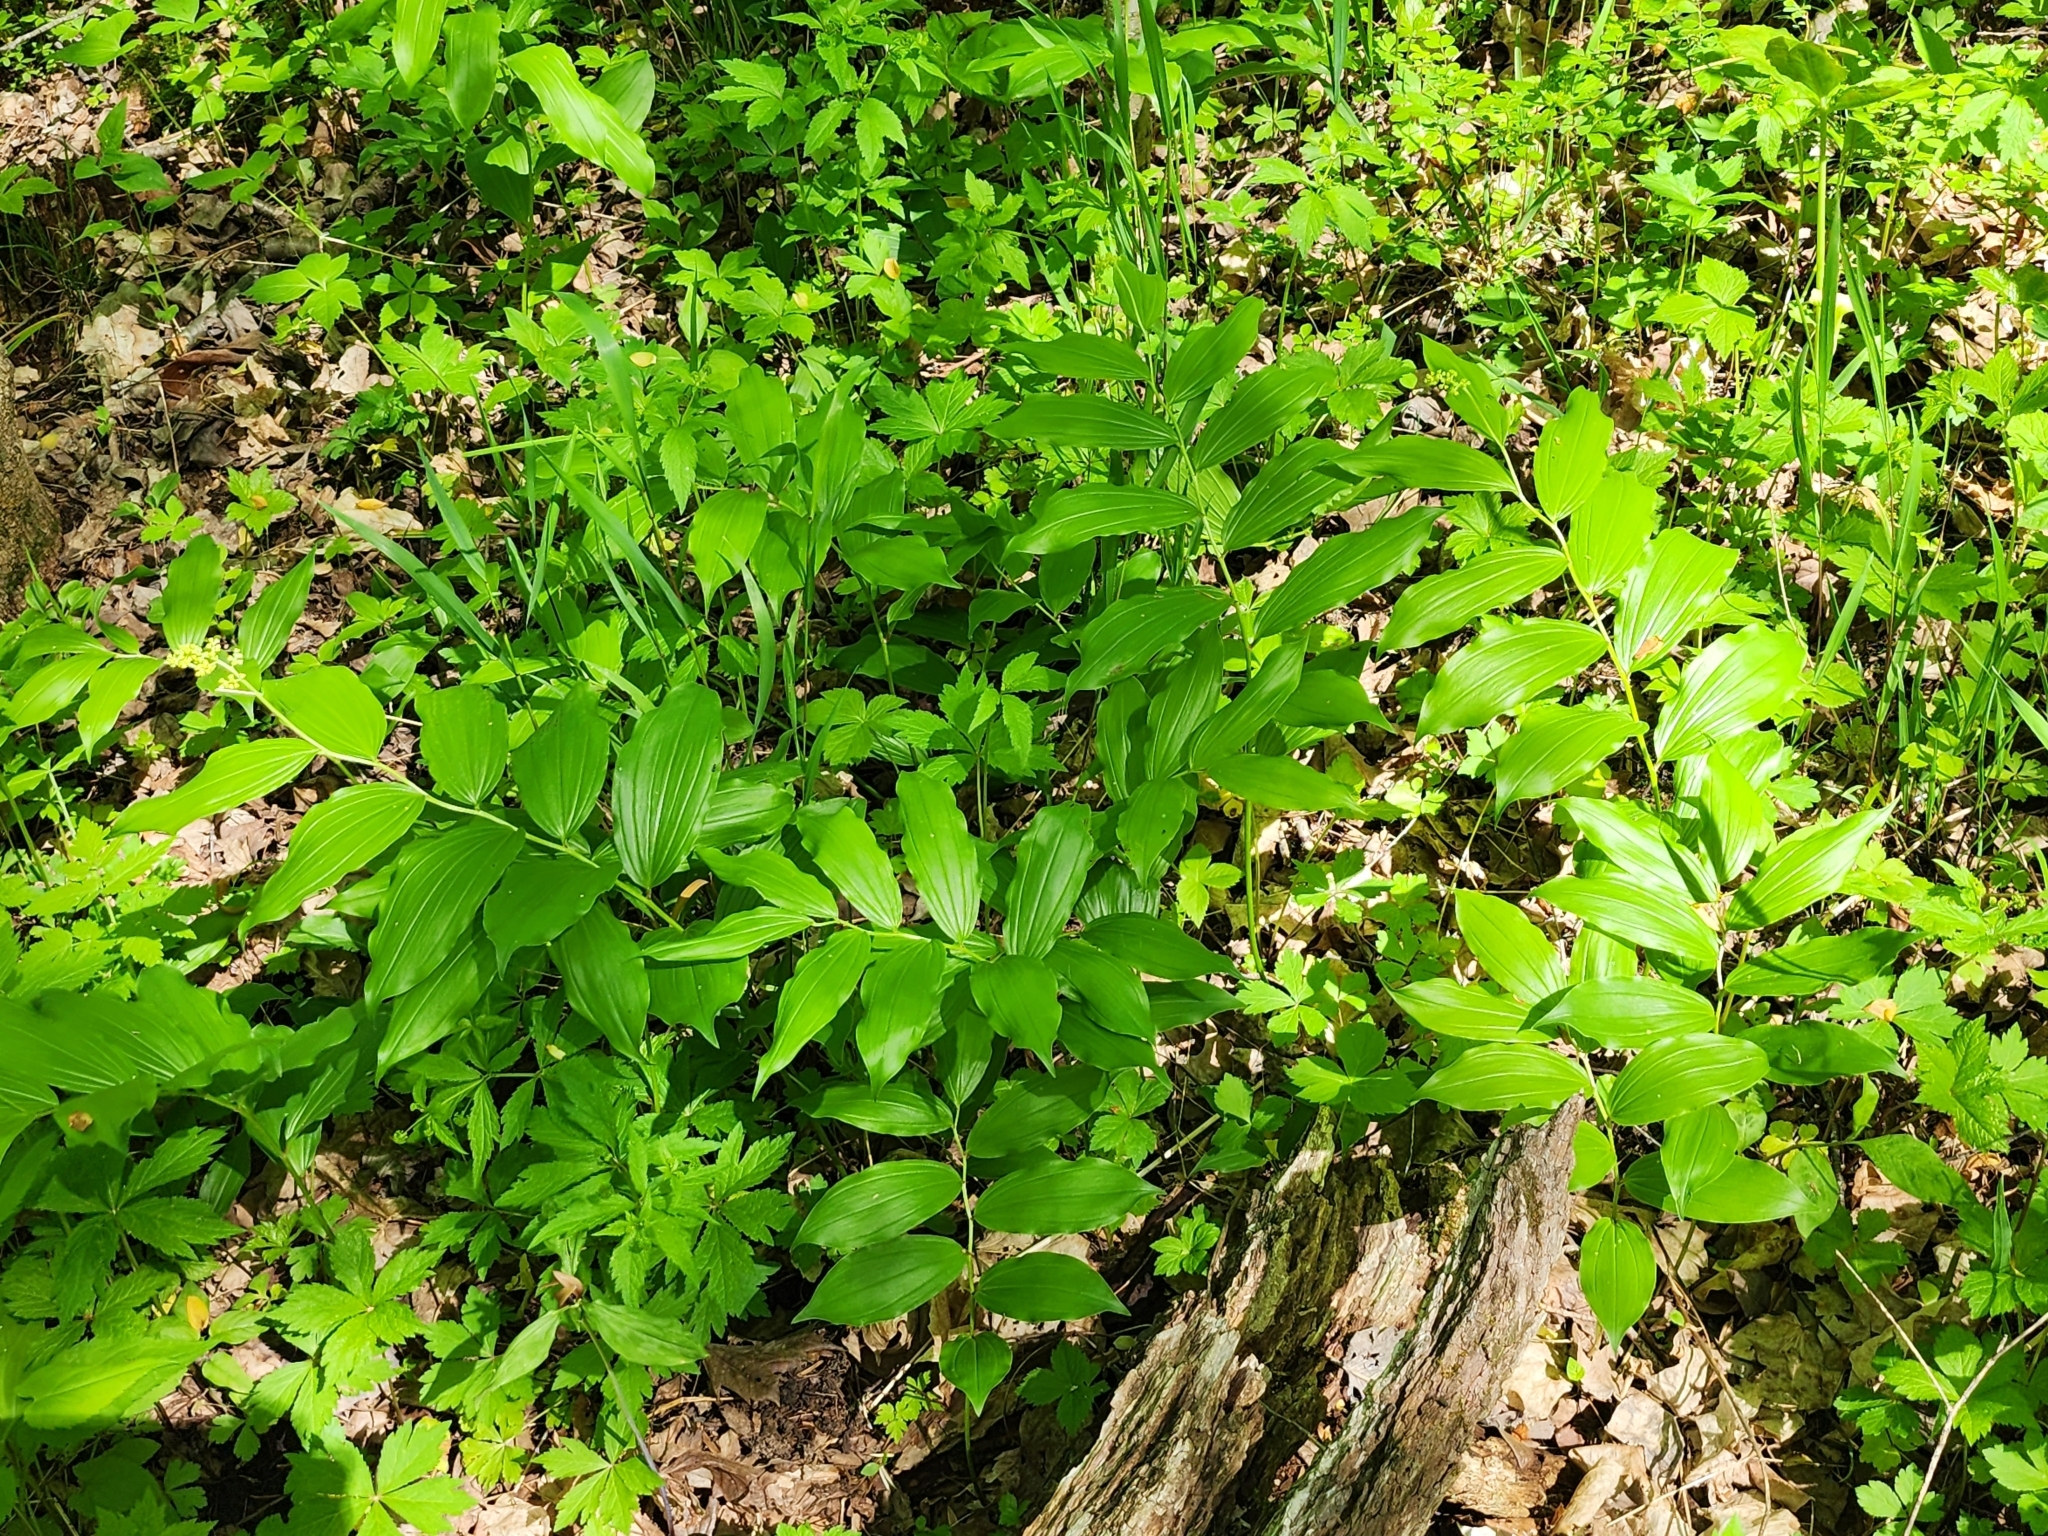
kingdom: Plantae
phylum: Tracheophyta
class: Liliopsida
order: Asparagales
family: Asparagaceae
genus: Maianthemum
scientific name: Maianthemum racemosum
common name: False spikenard
